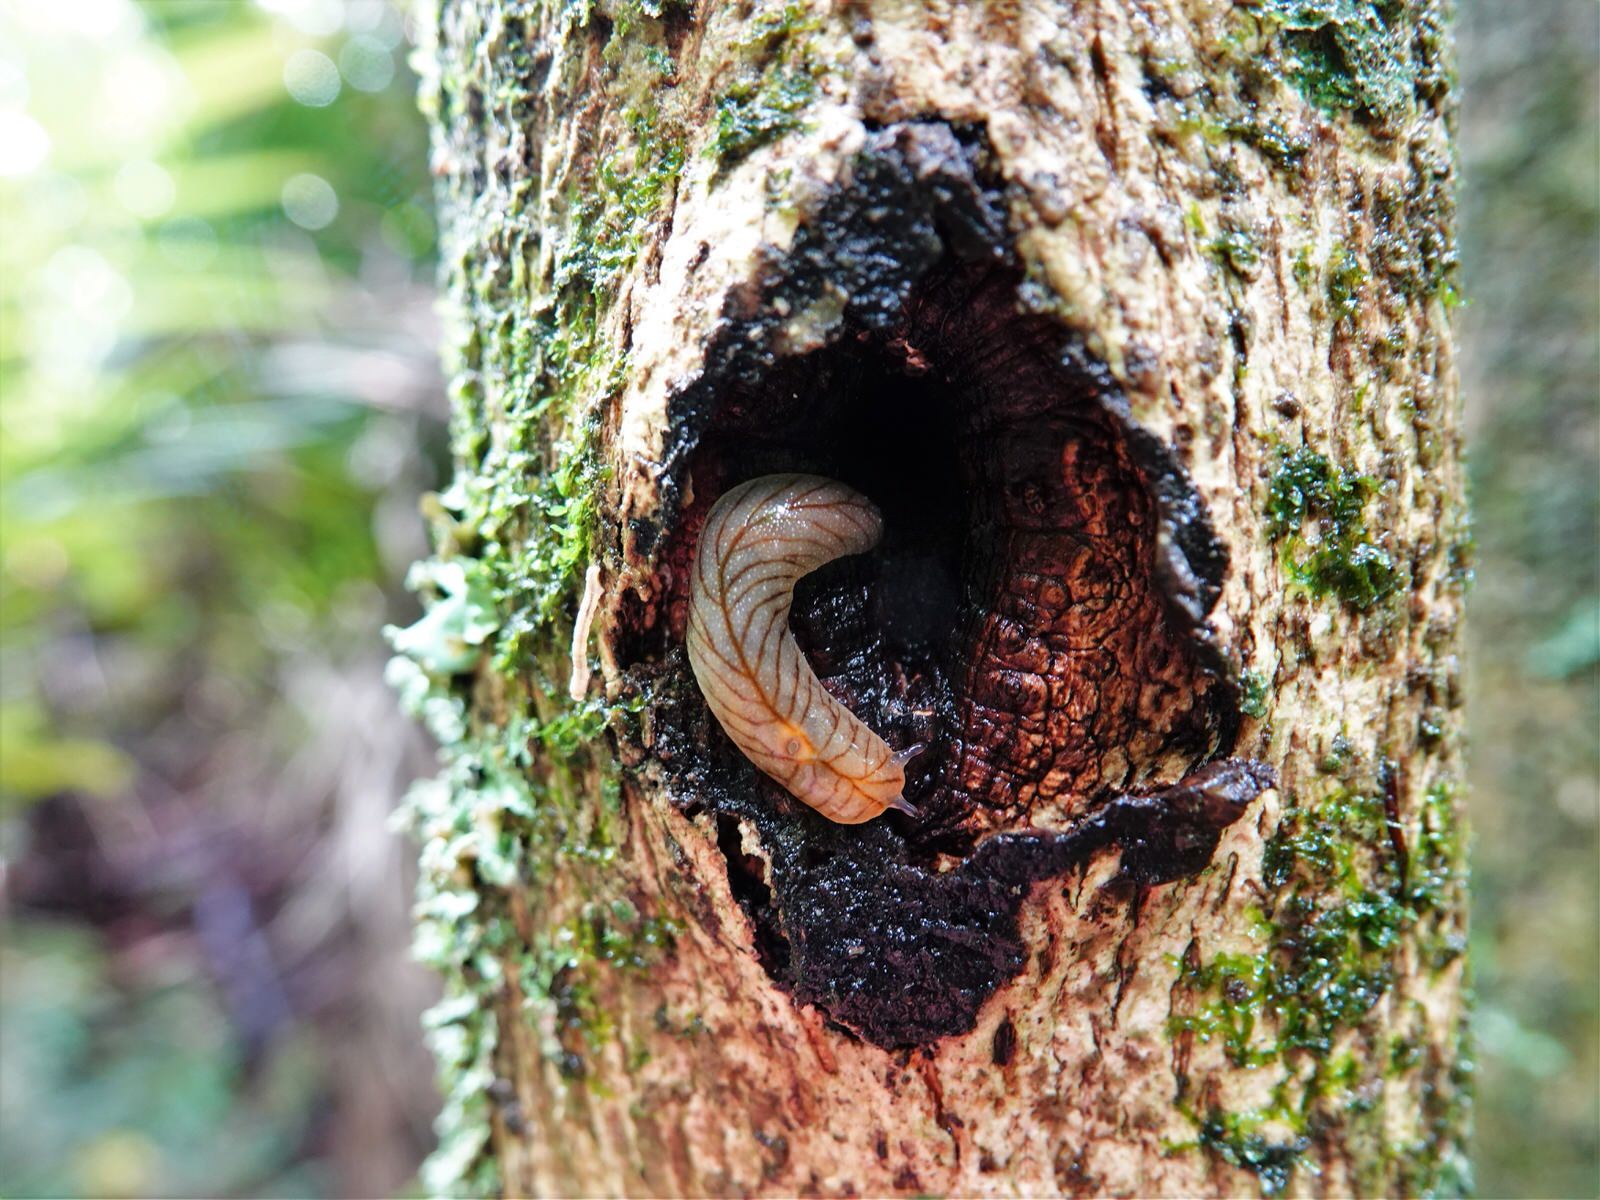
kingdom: Animalia
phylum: Mollusca
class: Gastropoda
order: Stylommatophora
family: Athoracophoridae
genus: Athoracophorus
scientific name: Athoracophorus bitentaculatus
